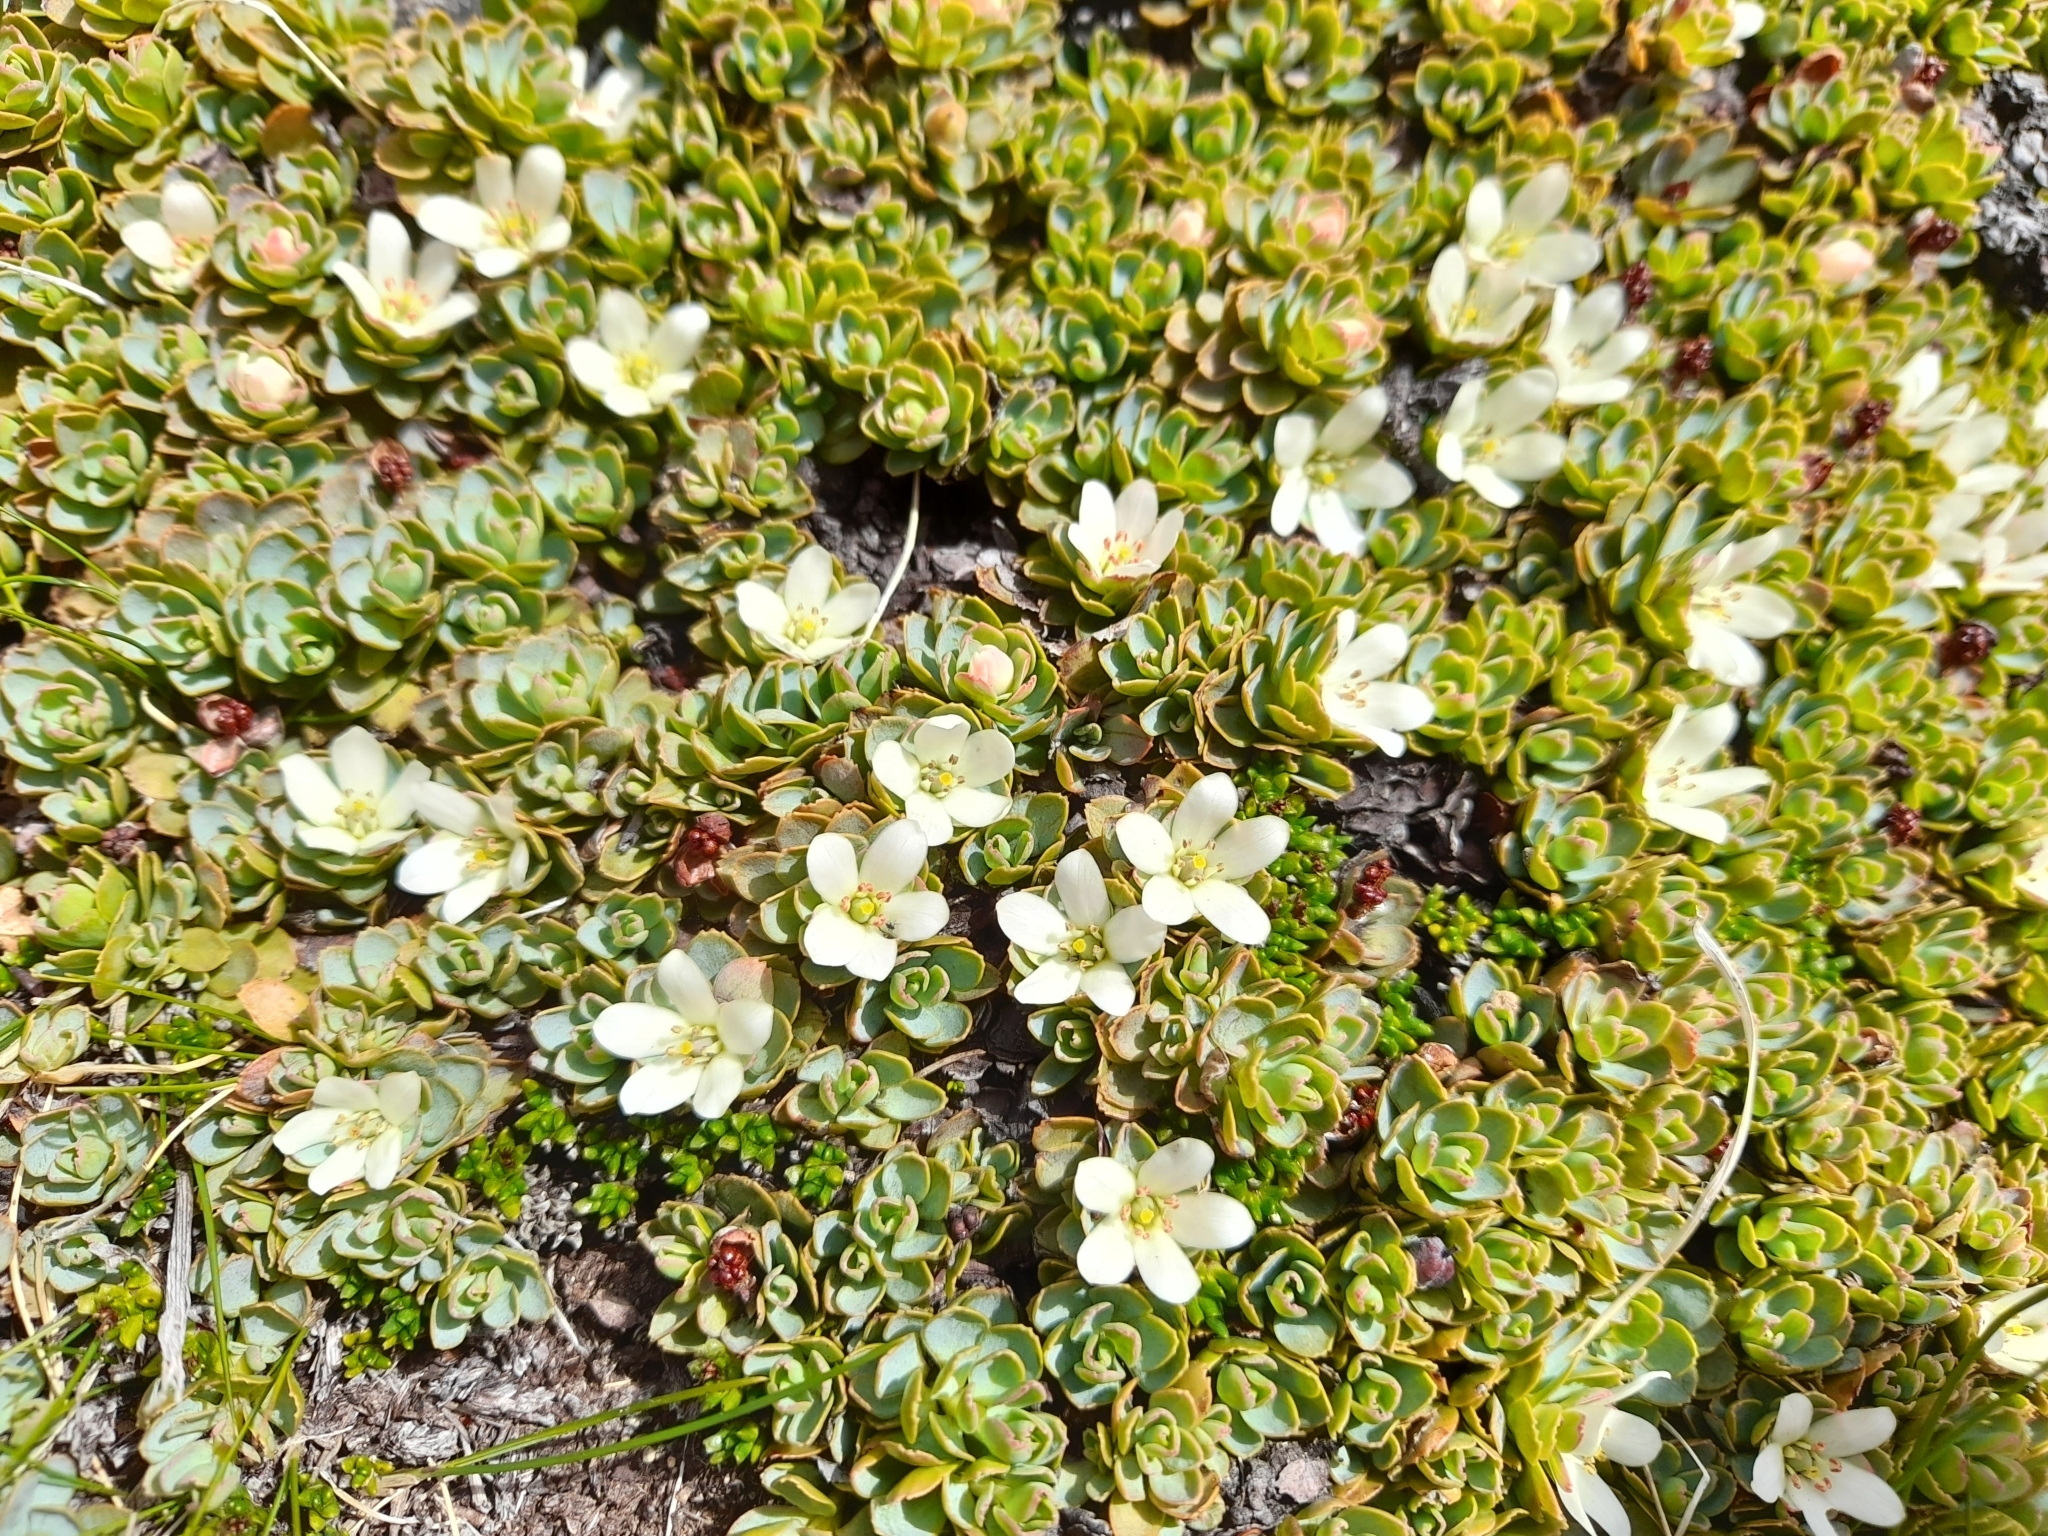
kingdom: Plantae
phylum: Tracheophyta
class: Magnoliopsida
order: Escalloniales
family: Escalloniaceae
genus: Tribeles
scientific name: Tribeles australis
